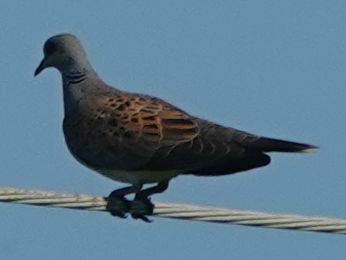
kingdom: Animalia
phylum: Chordata
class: Aves
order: Columbiformes
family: Columbidae
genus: Streptopelia
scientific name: Streptopelia turtur
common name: European turtle dove
